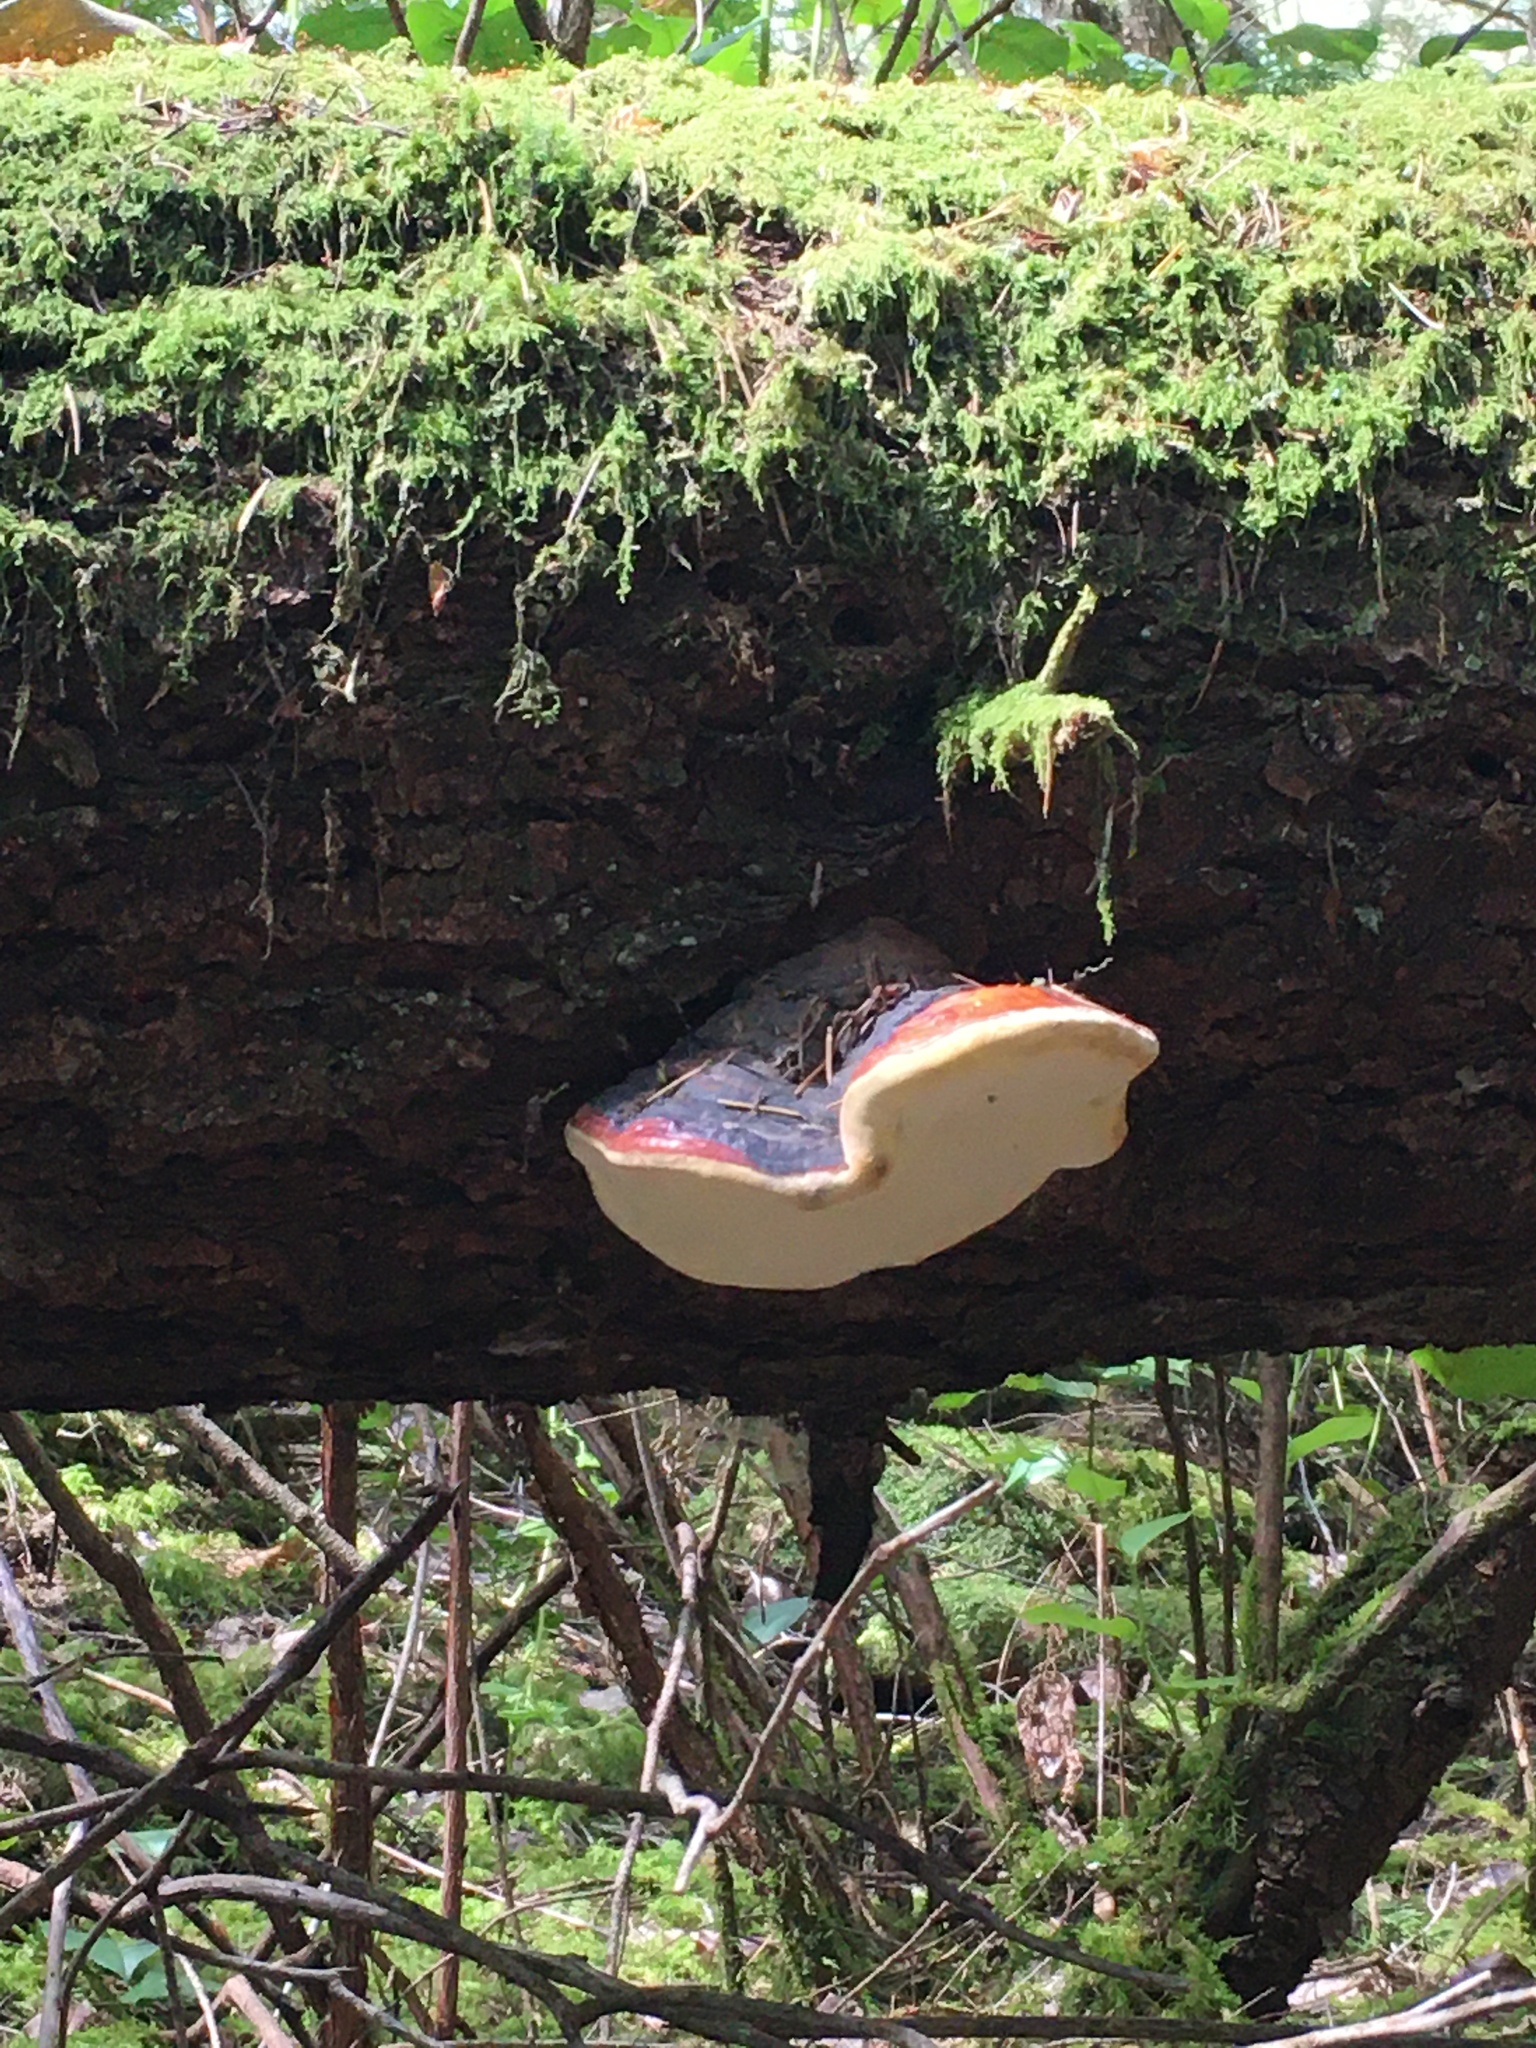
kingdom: Fungi
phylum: Basidiomycota
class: Agaricomycetes
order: Polyporales
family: Fomitopsidaceae
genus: Fomitopsis
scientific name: Fomitopsis mounceae
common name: Northern red belt
